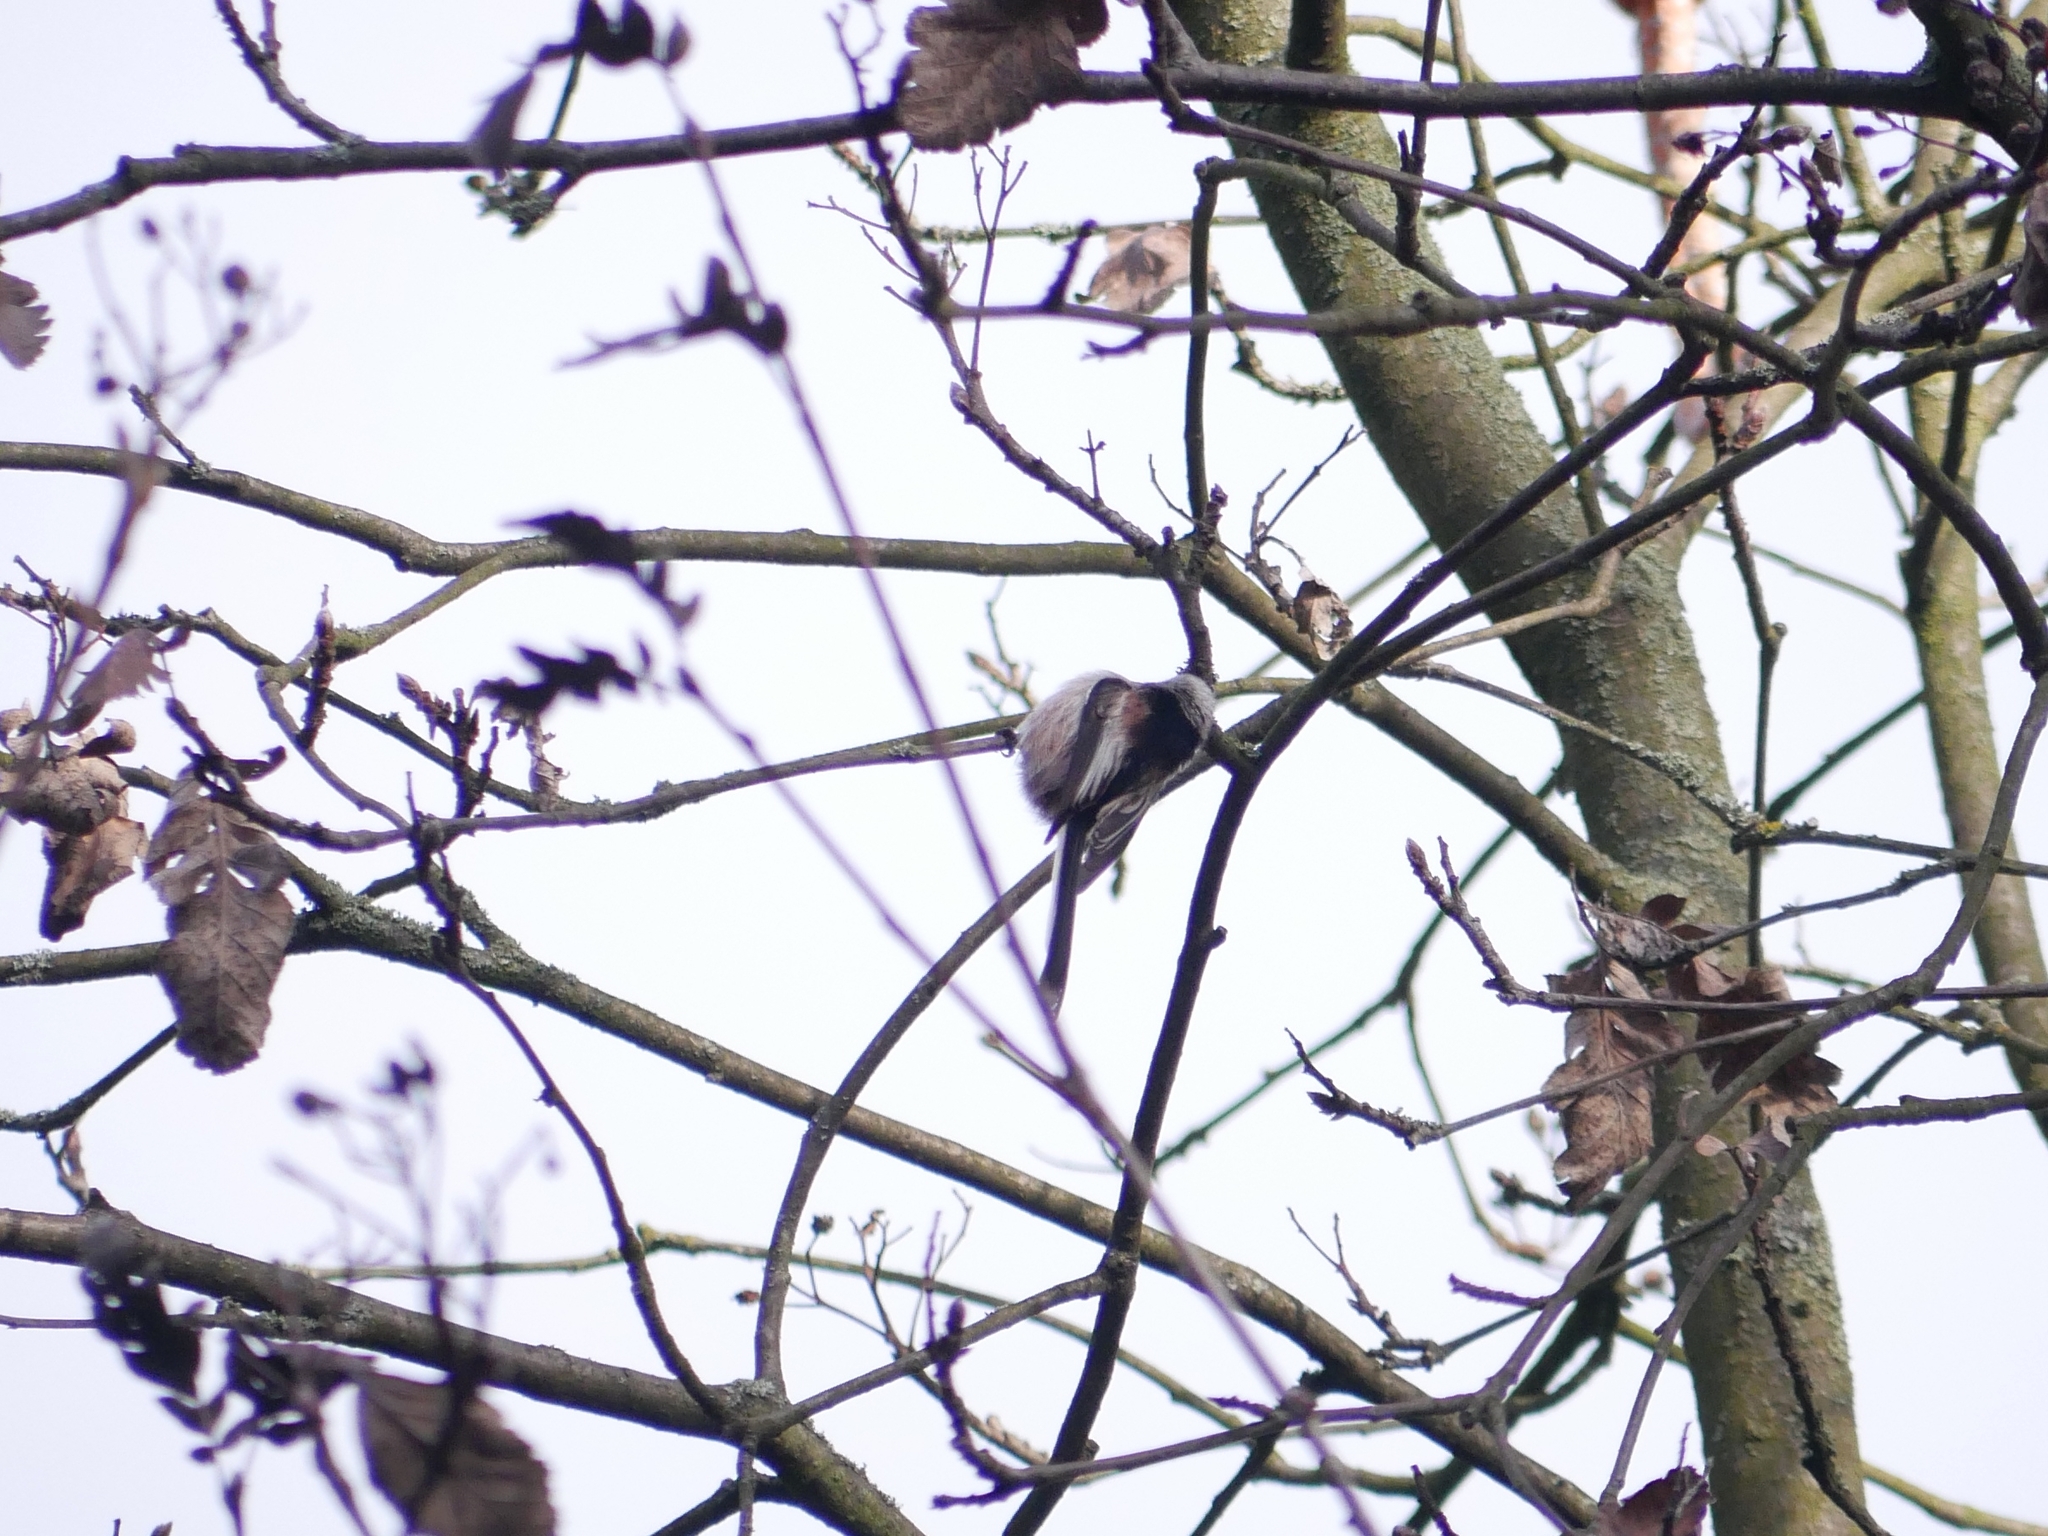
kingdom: Animalia
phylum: Chordata
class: Aves
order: Passeriformes
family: Aegithalidae
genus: Aegithalos
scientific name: Aegithalos caudatus
